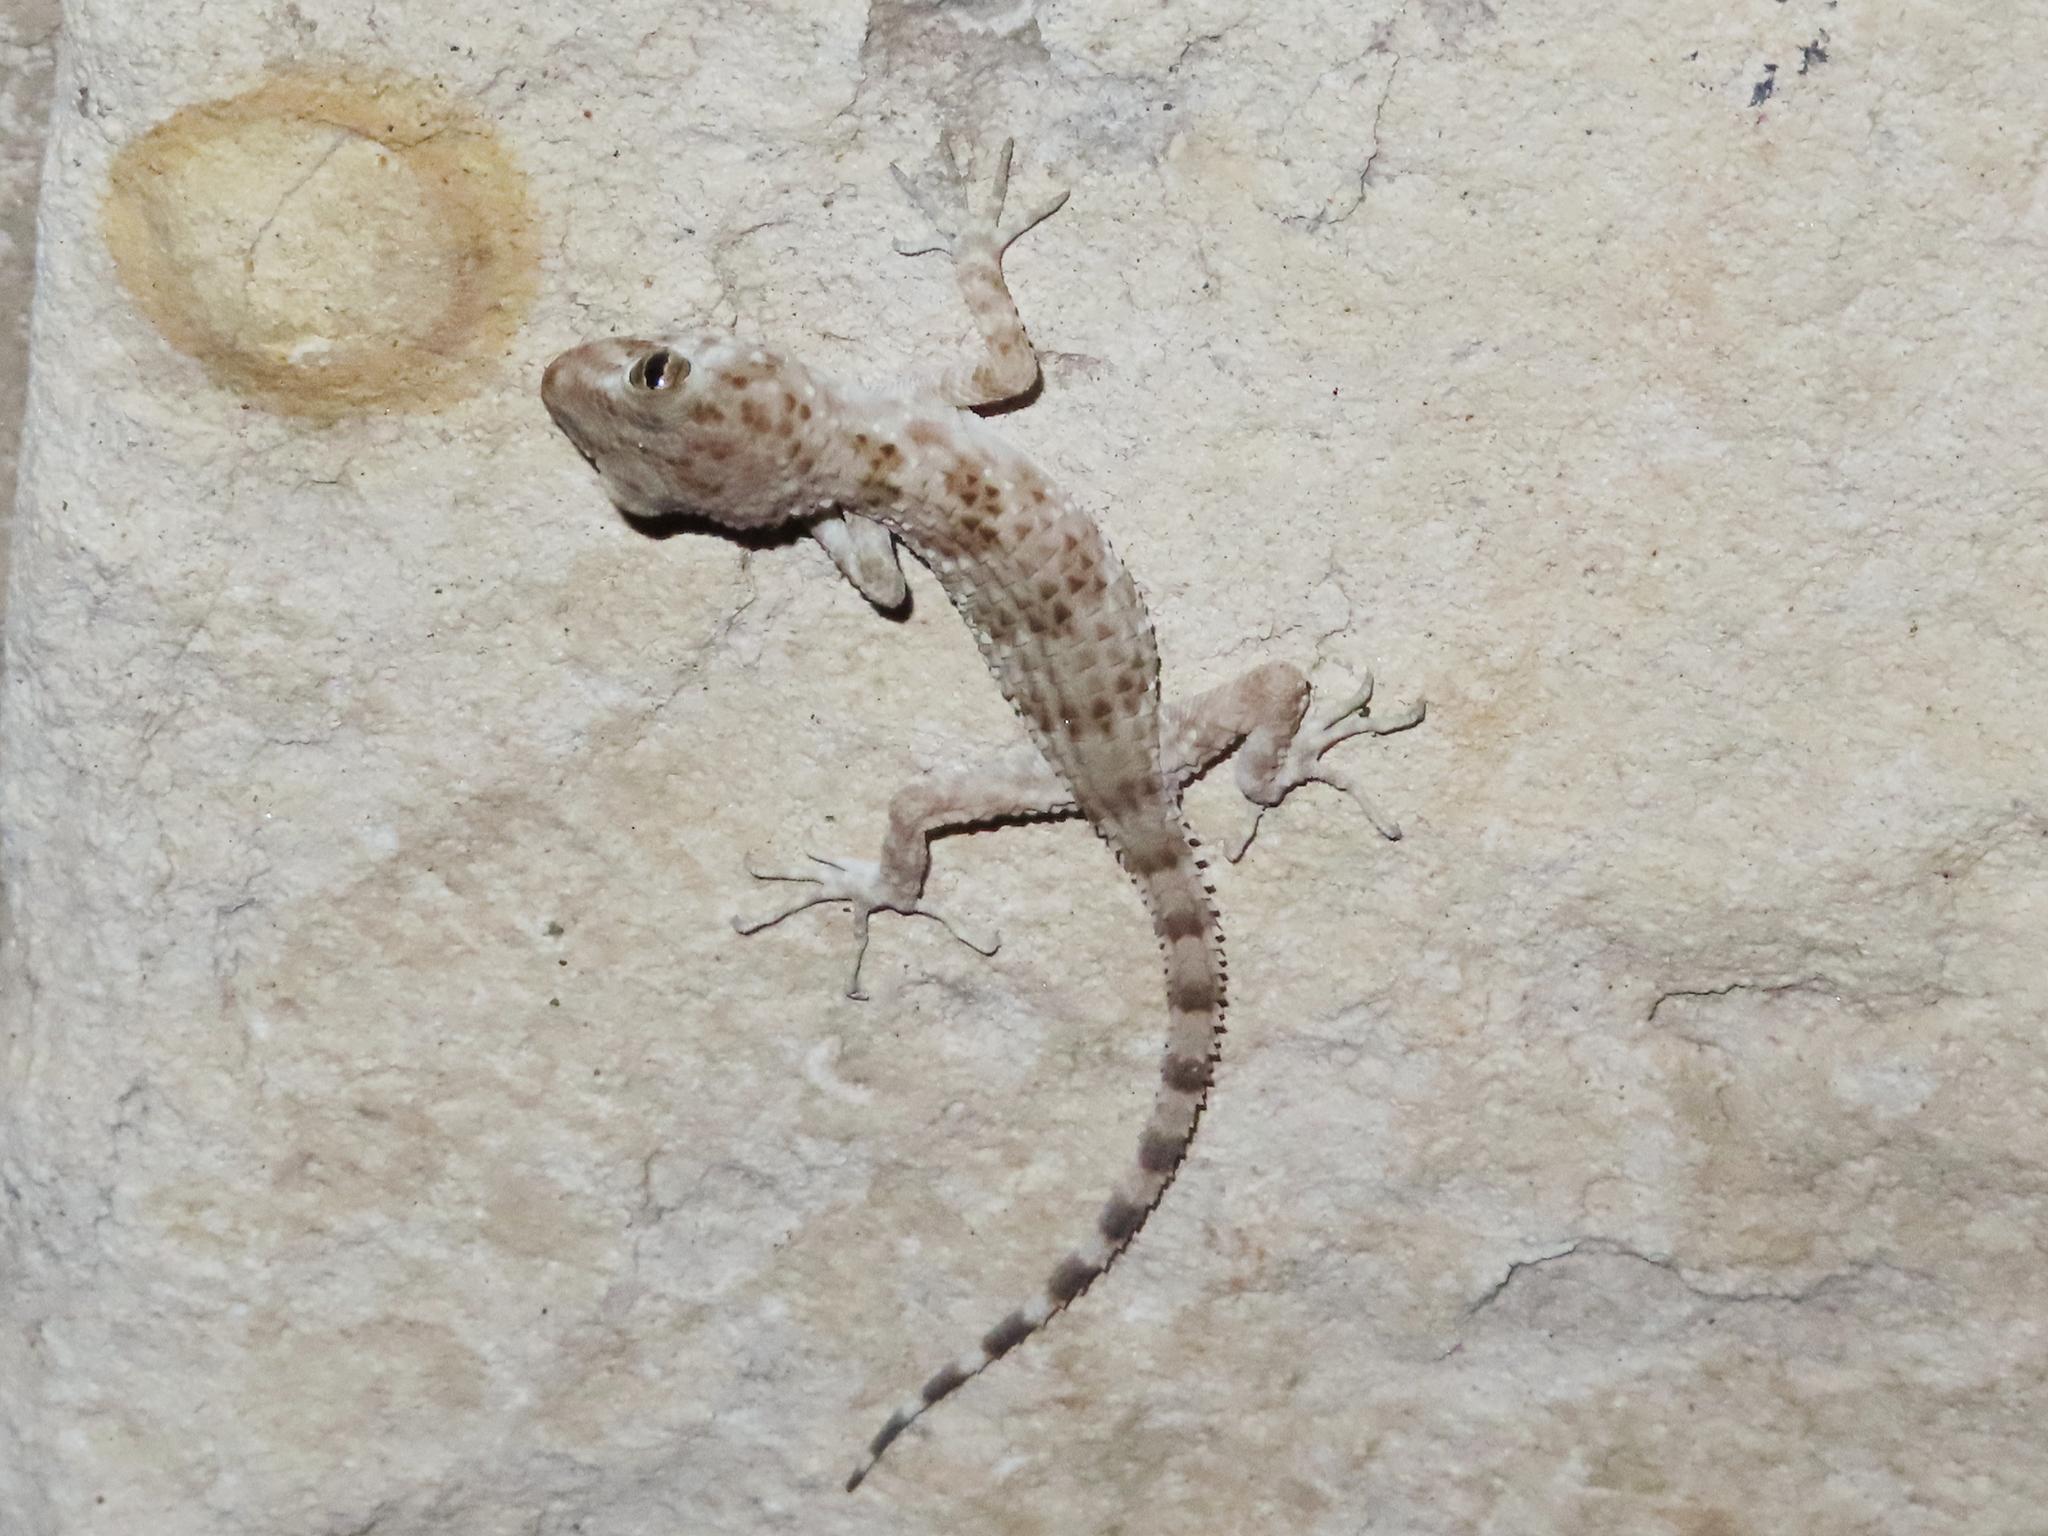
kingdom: Animalia
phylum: Chordata
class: Squamata
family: Gekkonidae
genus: Tenuidactylus
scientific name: Tenuidactylus caspius
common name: Caspian bent-toed gecko
